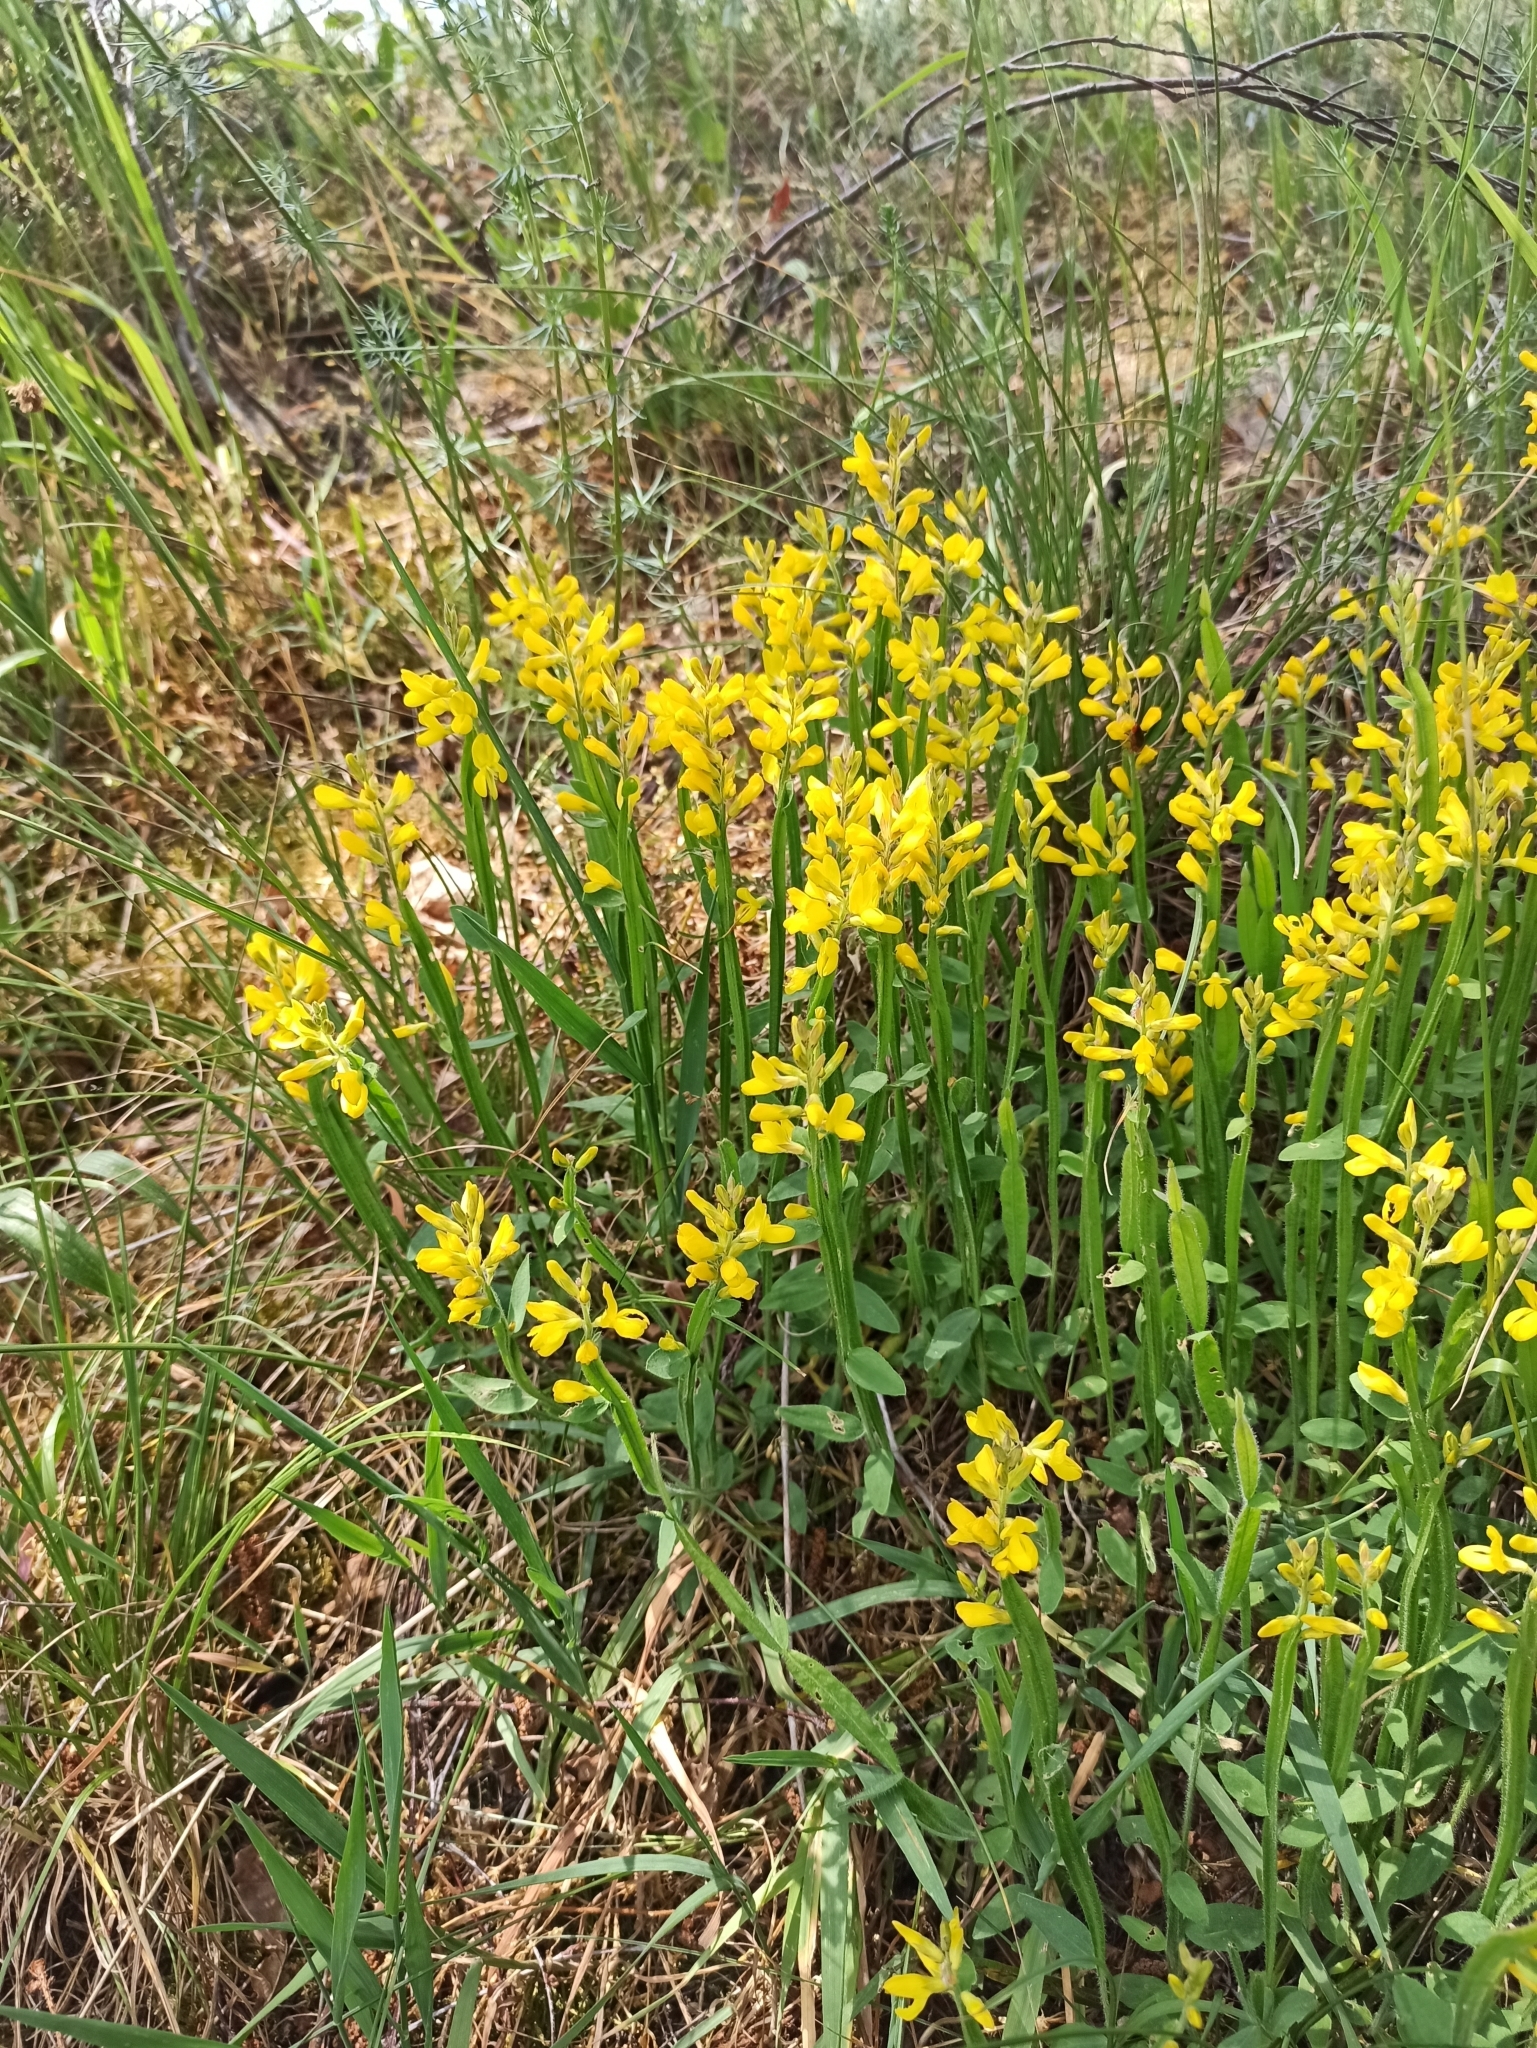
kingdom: Plantae
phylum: Tracheophyta
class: Magnoliopsida
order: Fabales
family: Fabaceae
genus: Genista
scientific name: Genista sagittalis
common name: Winged greenweed
